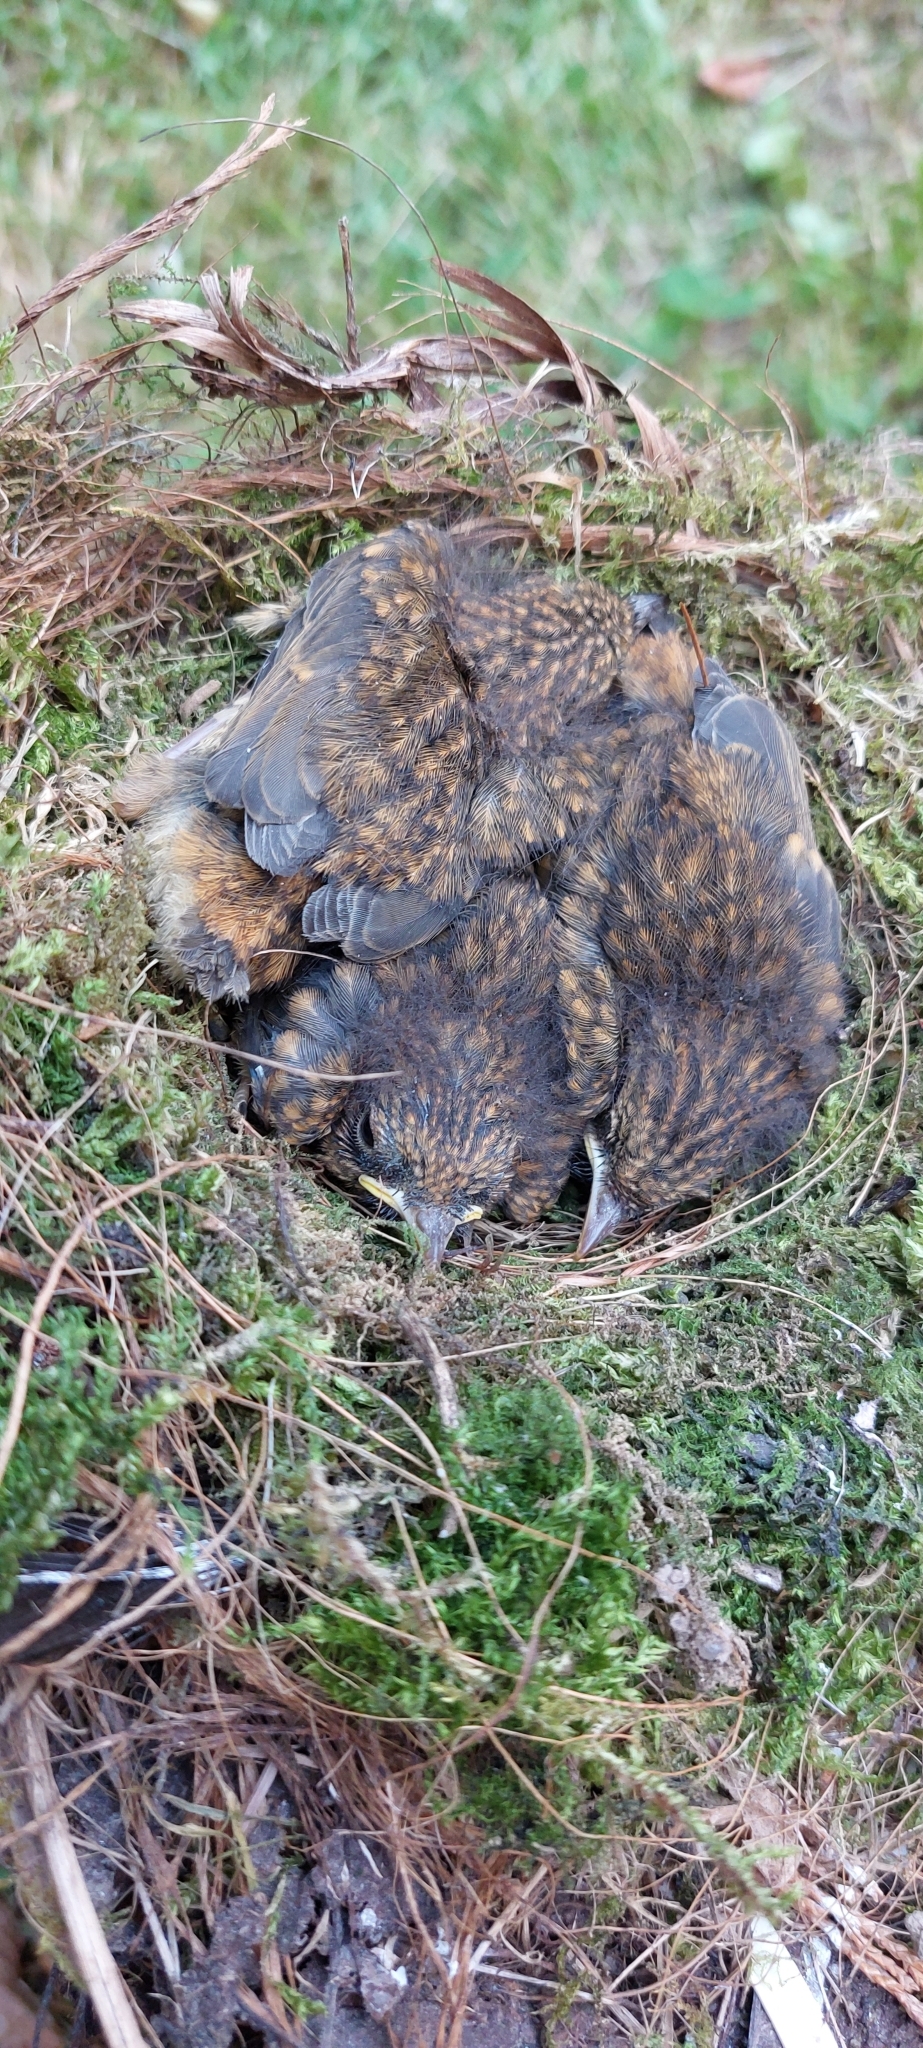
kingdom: Animalia
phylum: Chordata
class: Aves
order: Passeriformes
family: Muscicapidae
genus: Erithacus
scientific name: Erithacus rubecula
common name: European robin
